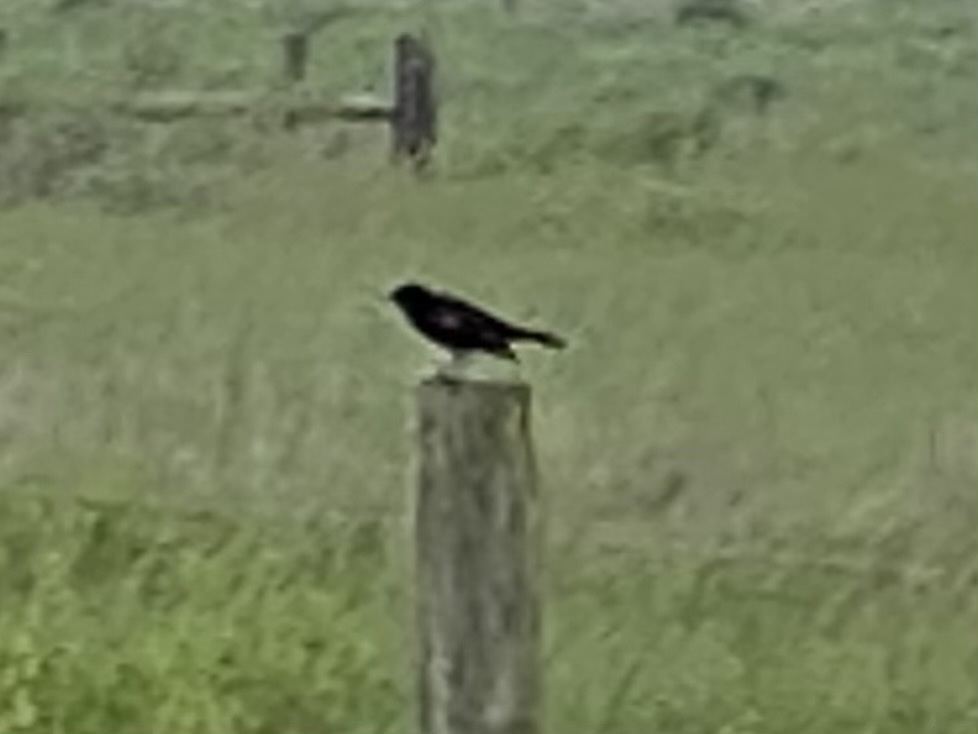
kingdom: Animalia
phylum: Chordata
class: Aves
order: Passeriformes
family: Icteridae
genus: Agelaius
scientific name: Agelaius phoeniceus
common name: Red-winged blackbird
